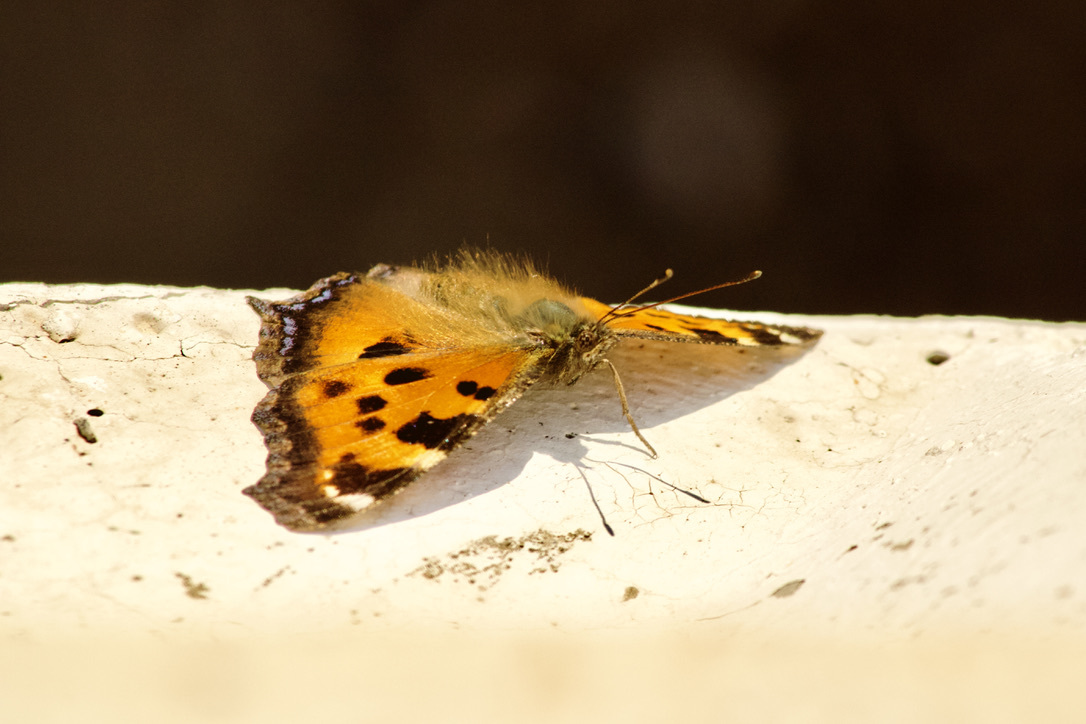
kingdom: Animalia
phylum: Arthropoda
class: Insecta
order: Lepidoptera
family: Nymphalidae
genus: Nymphalis
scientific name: Nymphalis xanthomelas
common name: Scarce tortoiseshell
